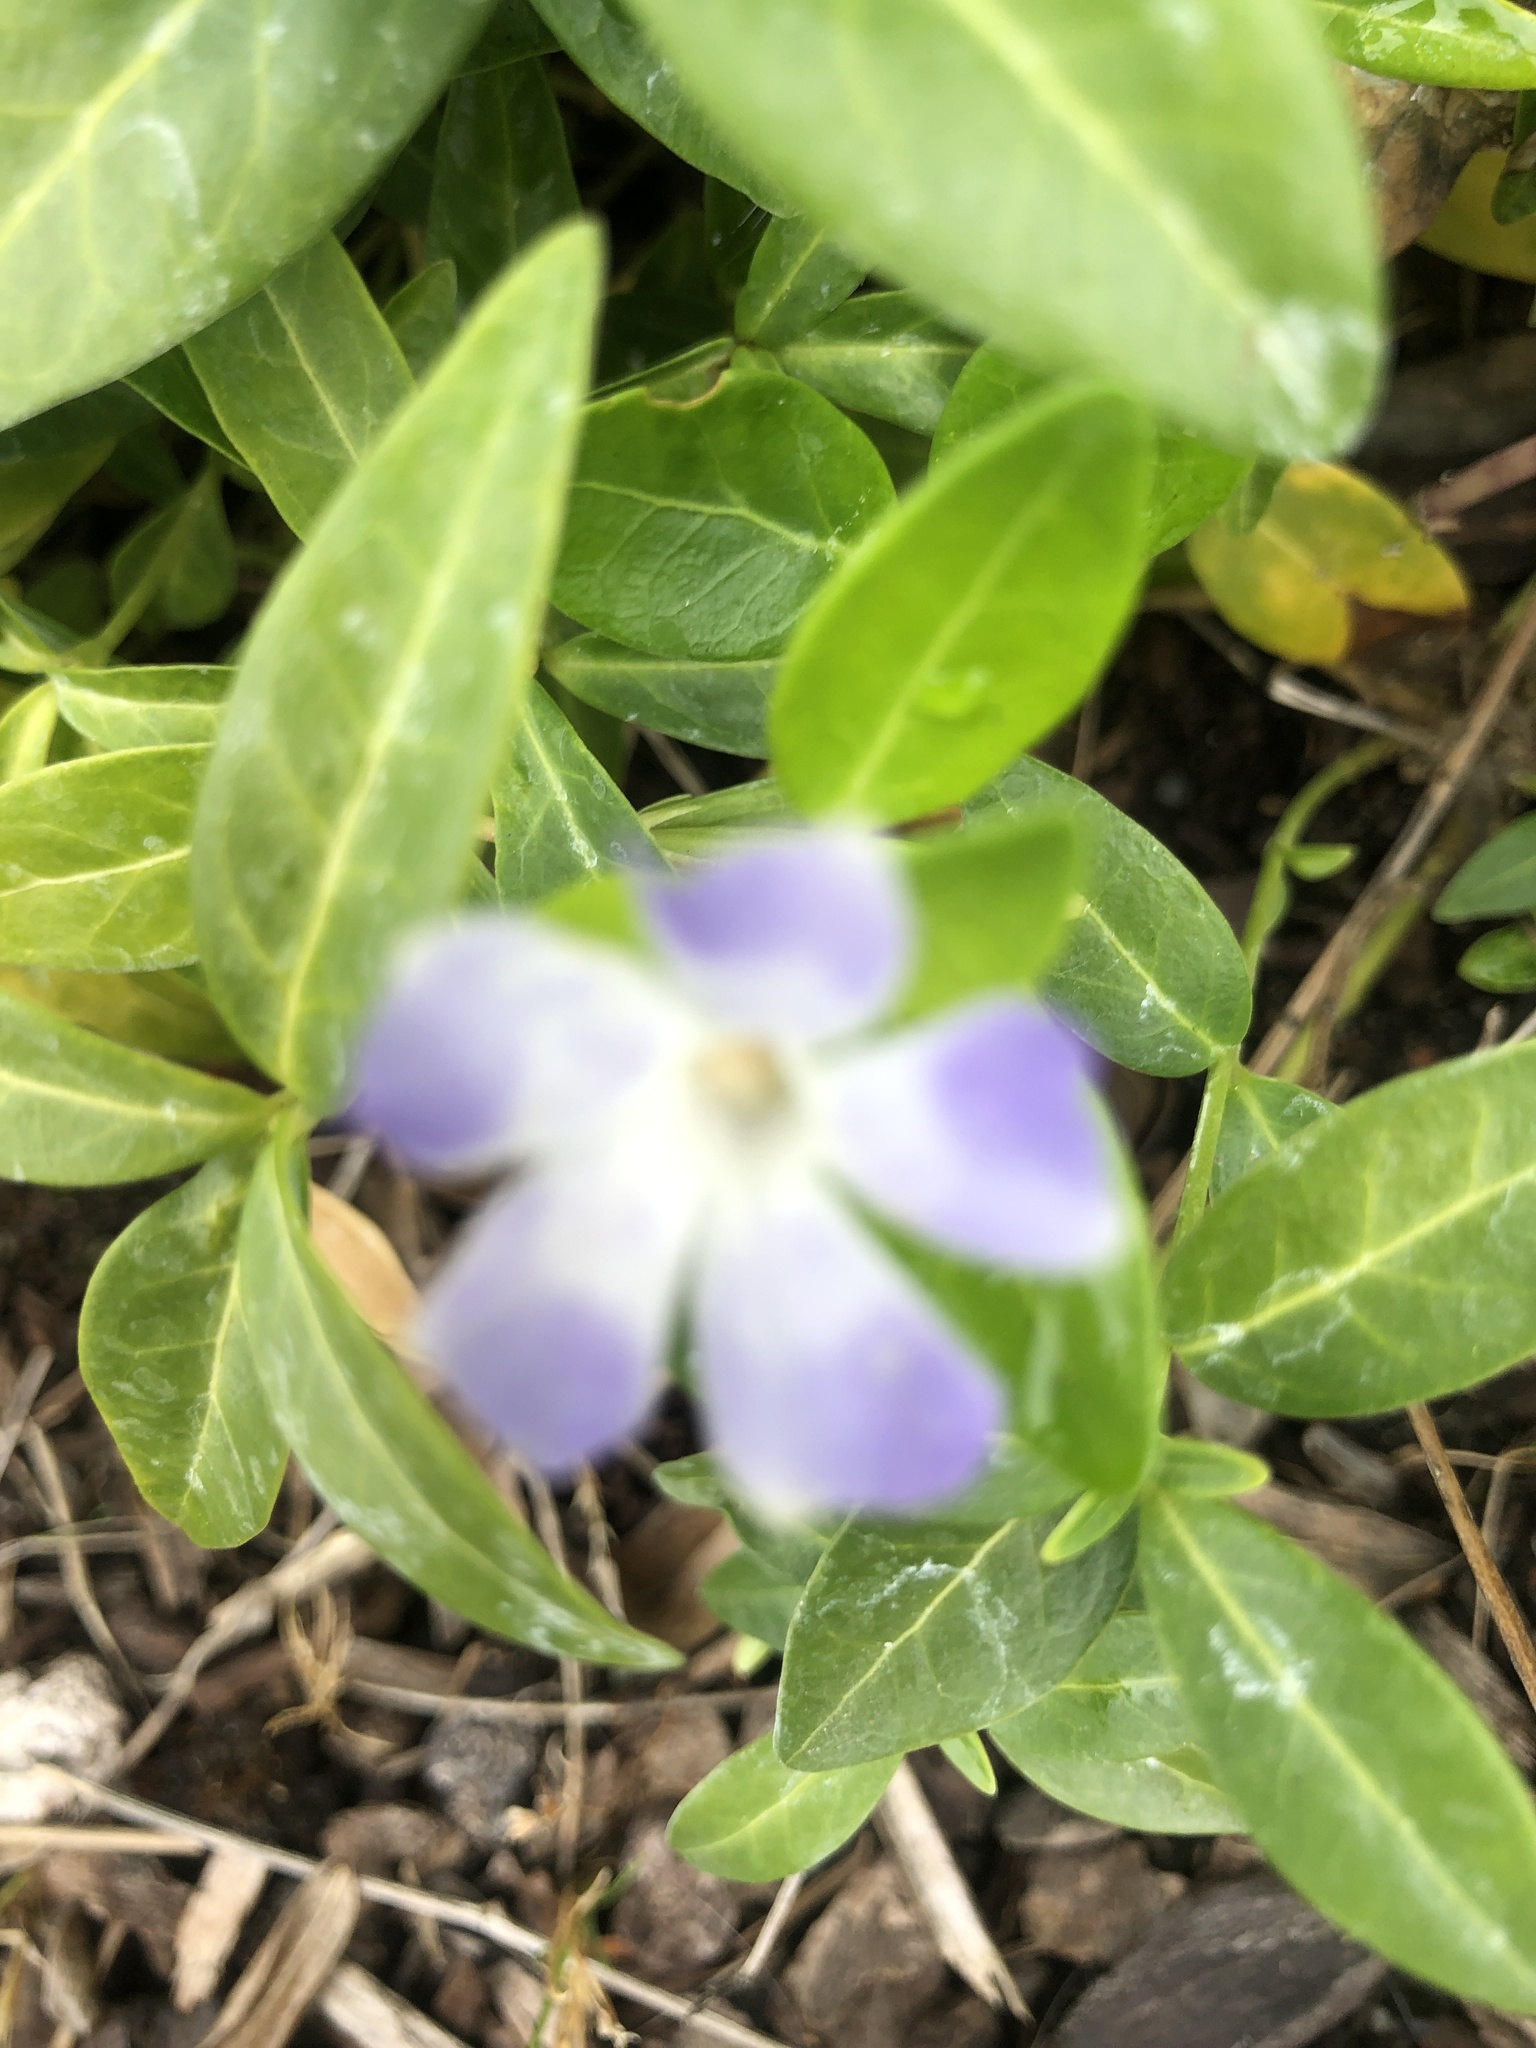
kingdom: Plantae
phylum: Tracheophyta
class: Magnoliopsida
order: Gentianales
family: Apocynaceae
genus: Vinca
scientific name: Vinca minor
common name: Lesser periwinkle
